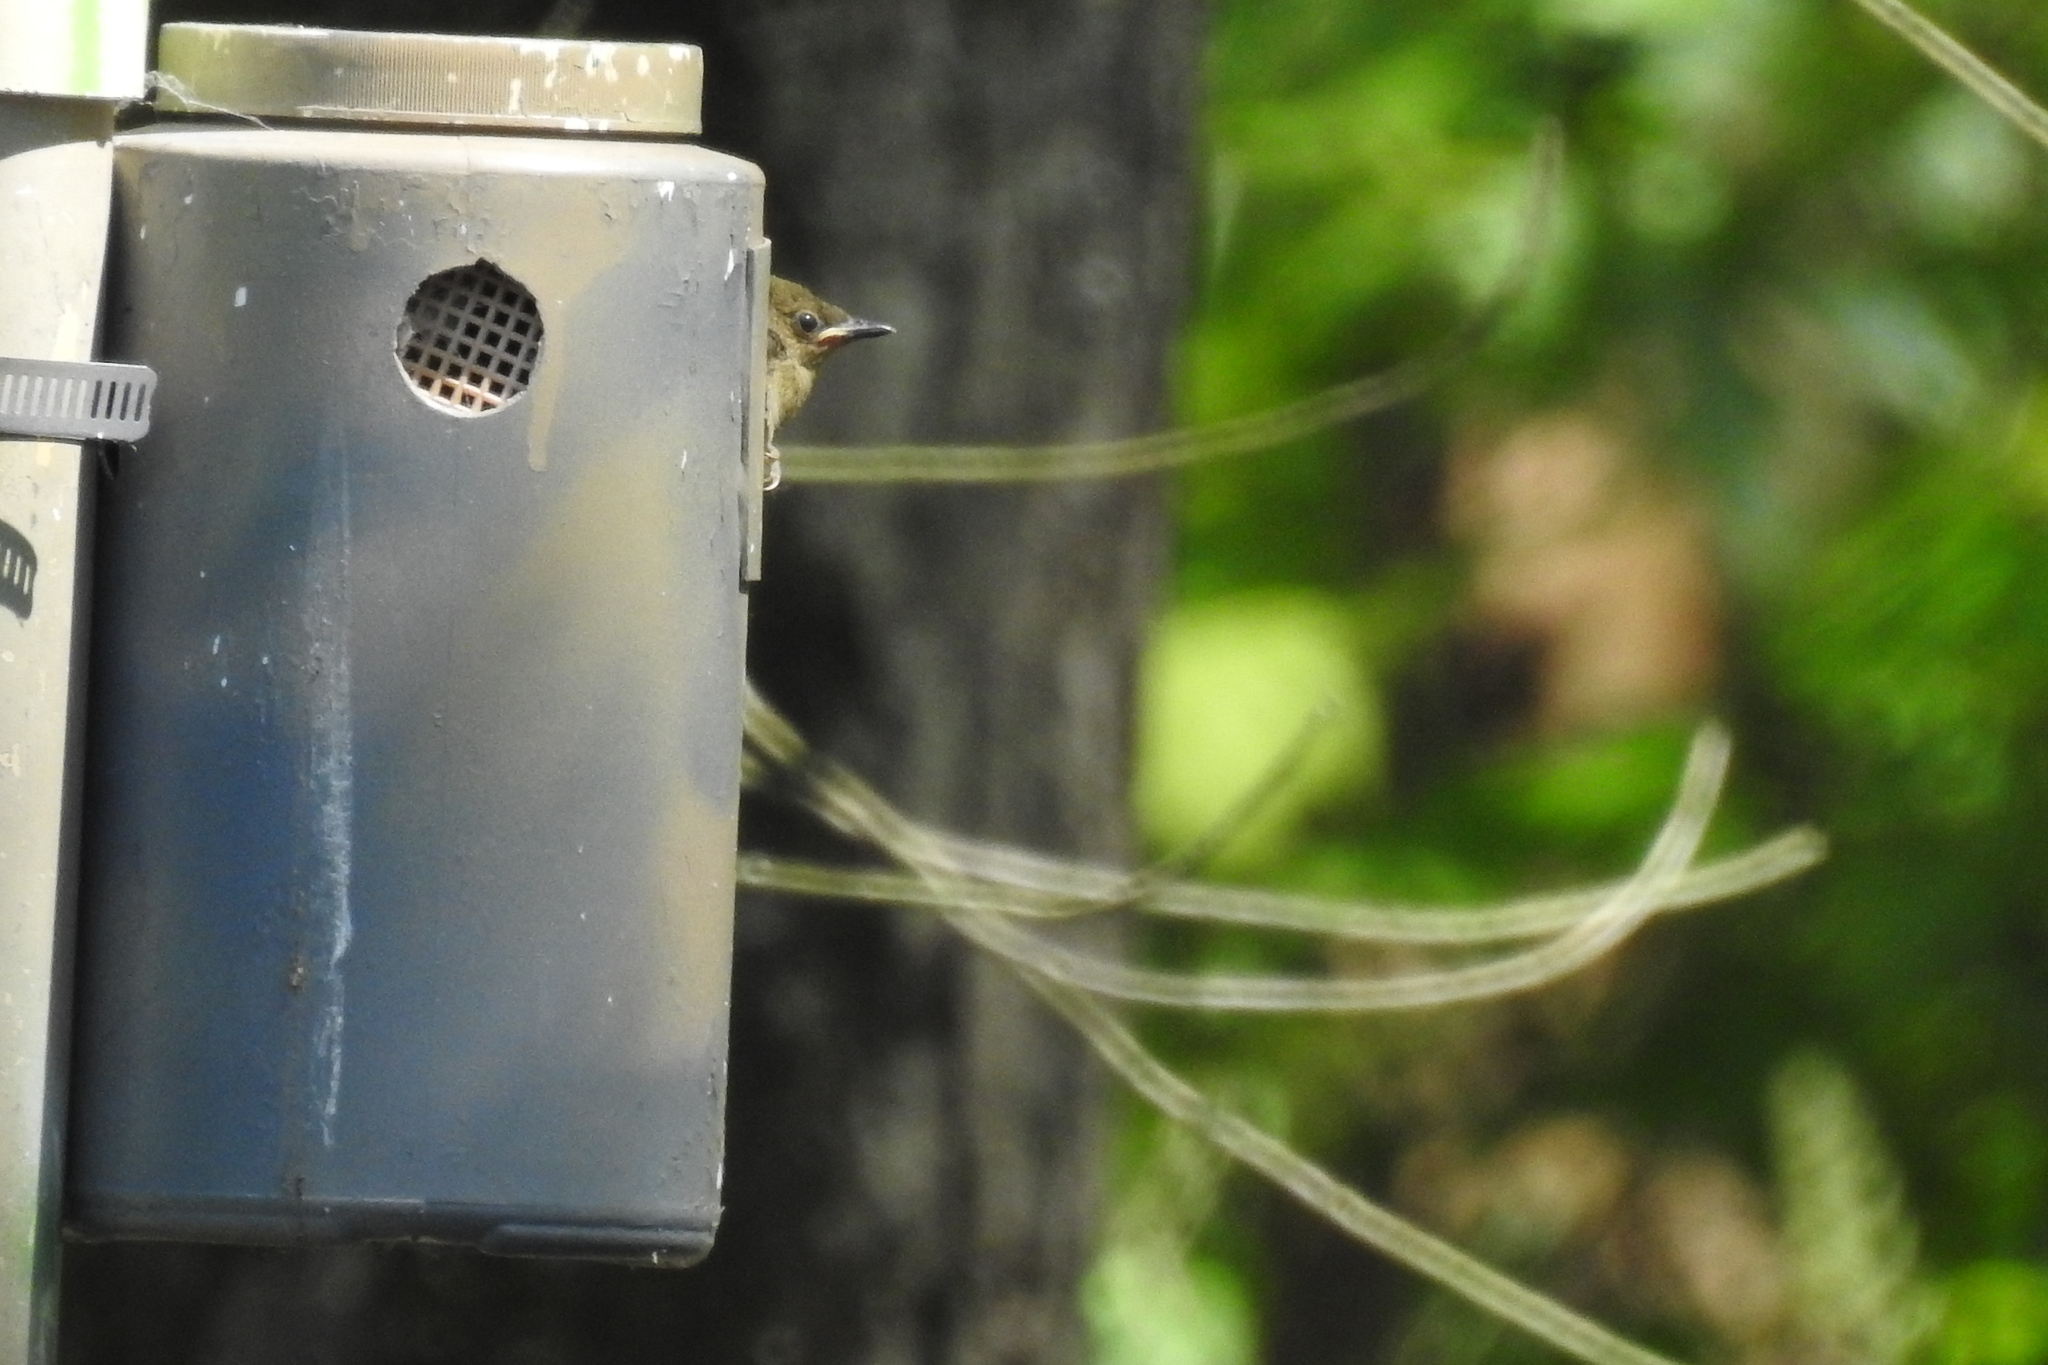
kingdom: Animalia
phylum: Chordata
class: Aves
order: Passeriformes
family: Parulidae
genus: Protonotaria
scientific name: Protonotaria citrea
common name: Prothonotary warbler
